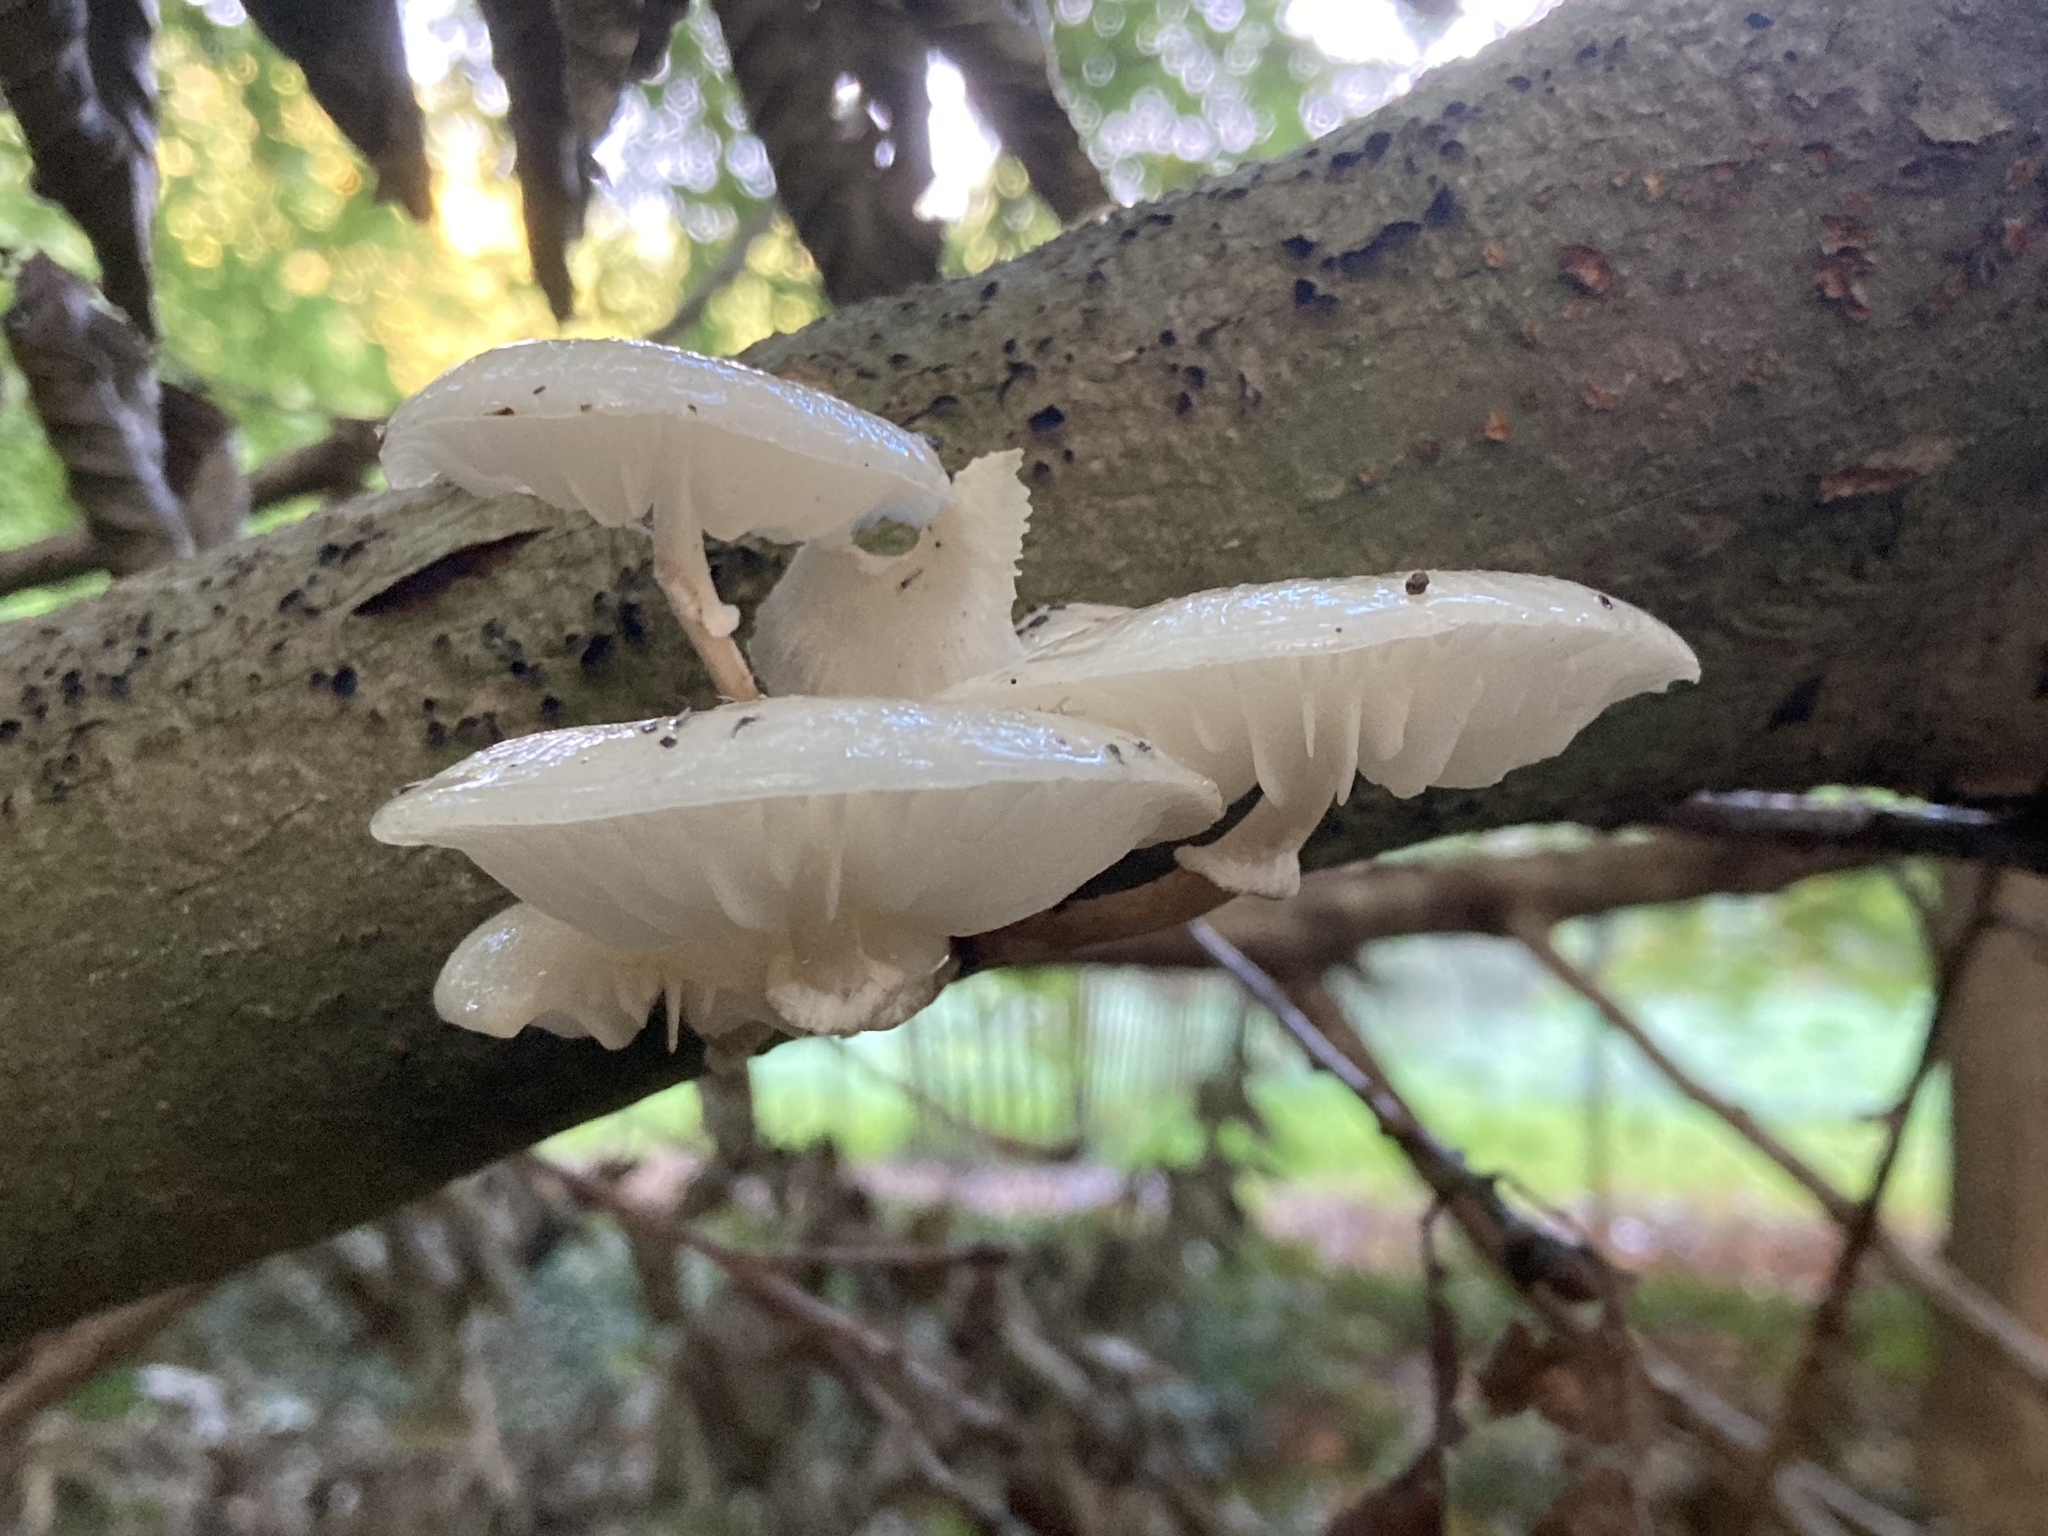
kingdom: Fungi
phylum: Basidiomycota
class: Agaricomycetes
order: Agaricales
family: Physalacriaceae
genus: Mucidula
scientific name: Mucidula mucida
